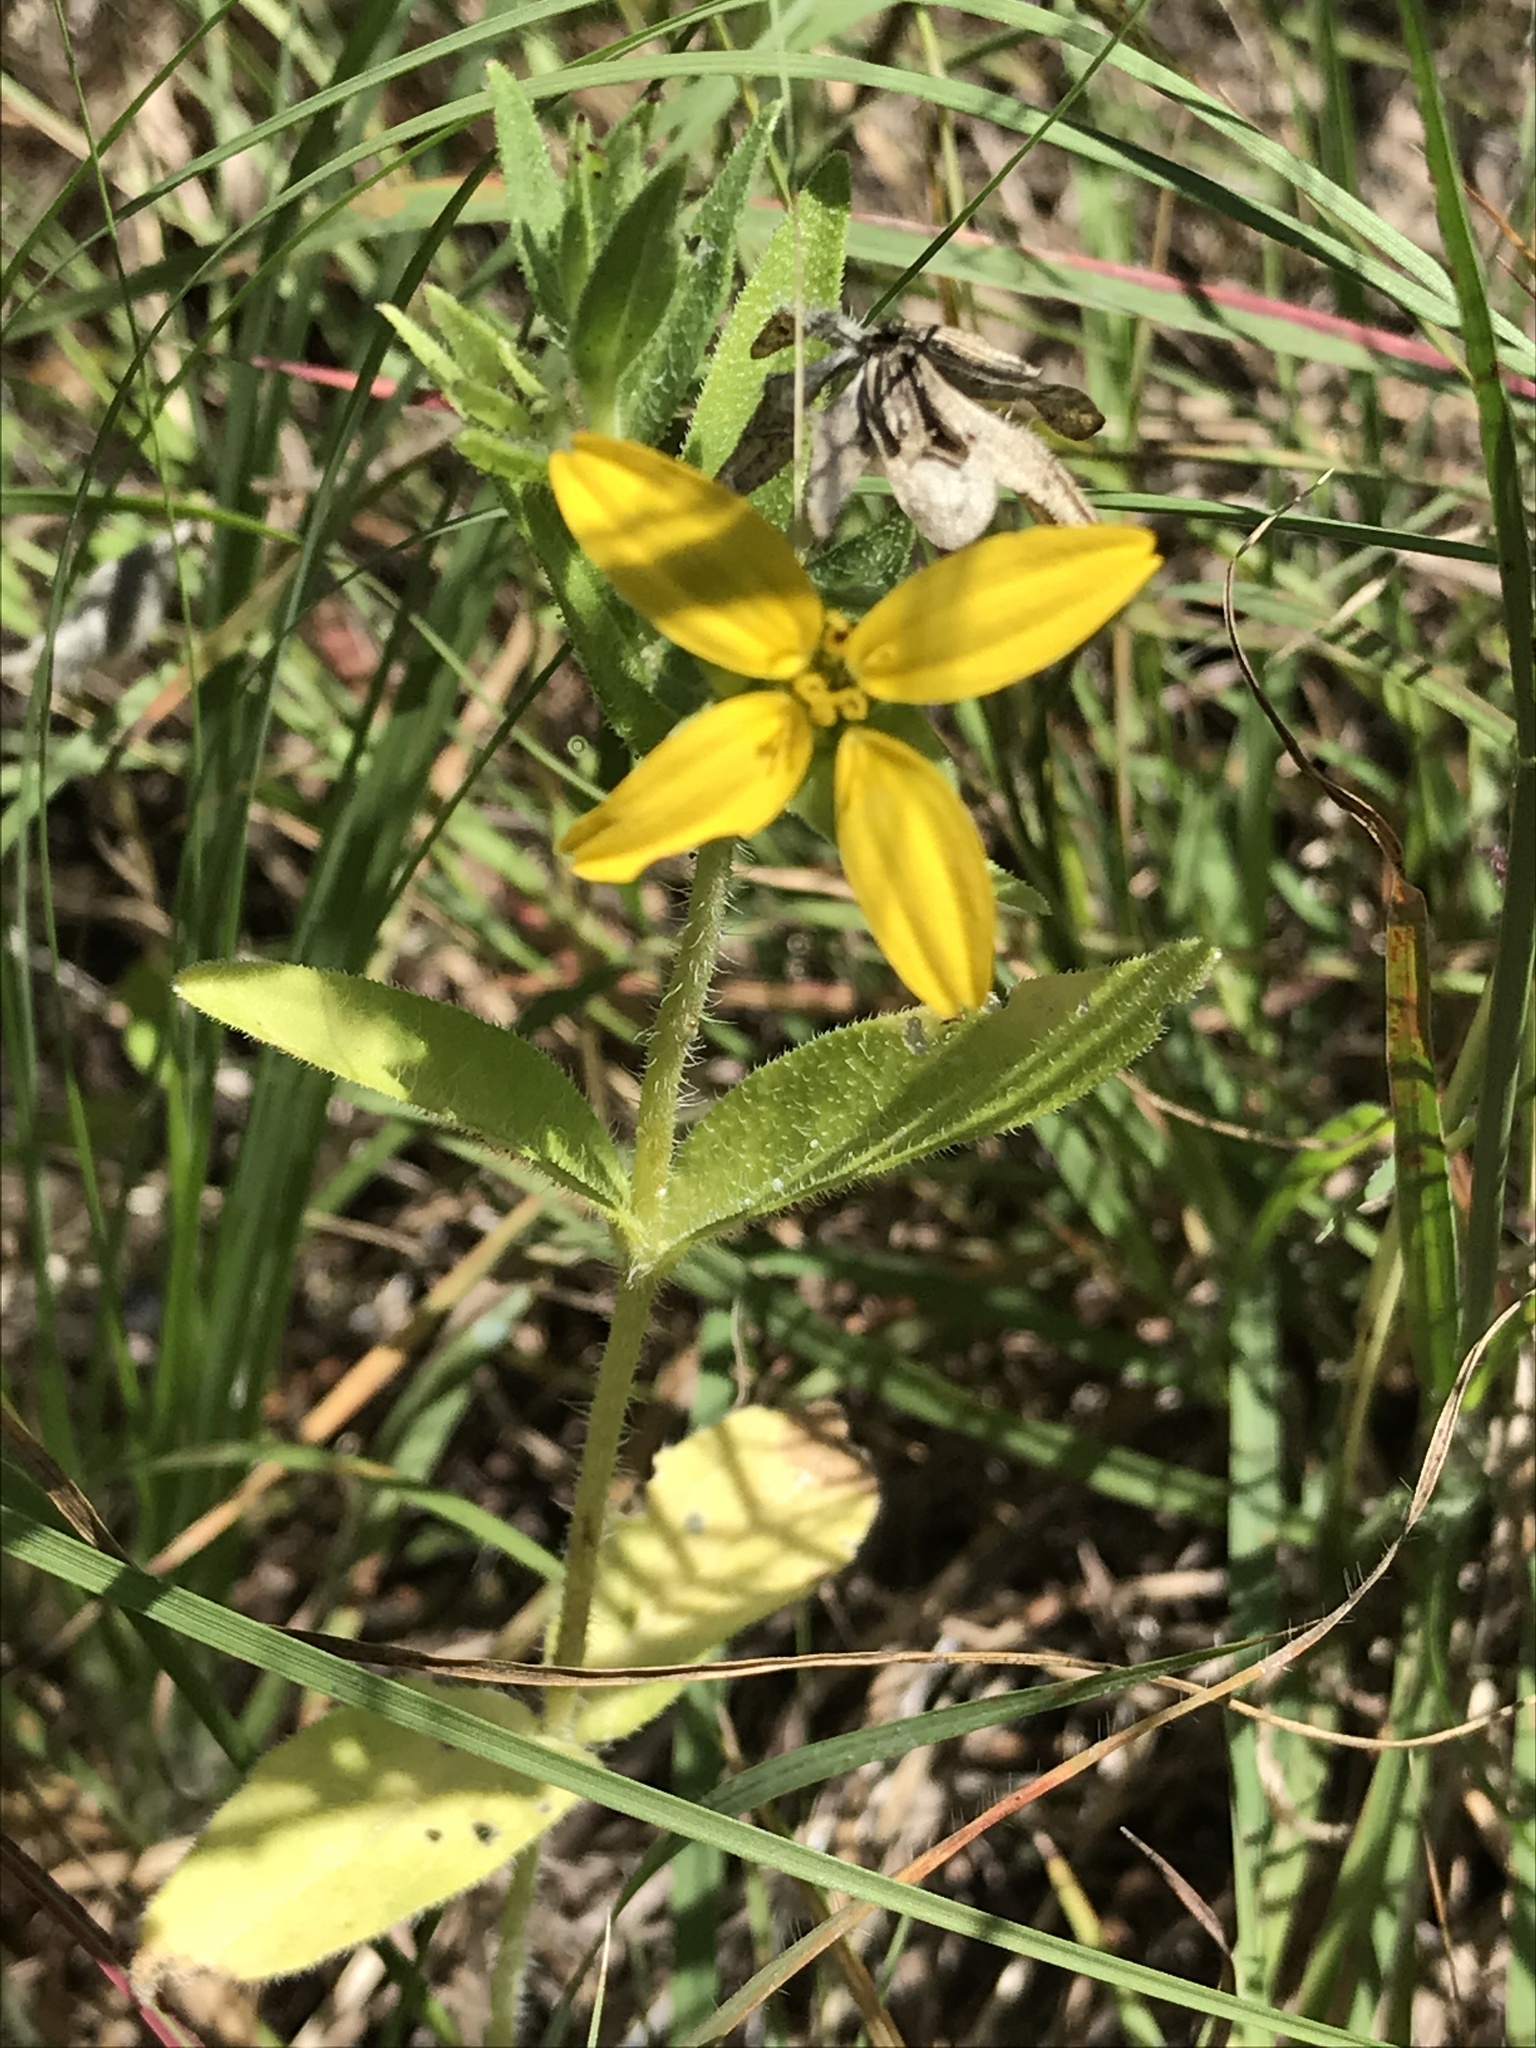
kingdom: Plantae
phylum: Tracheophyta
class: Magnoliopsida
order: Asterales
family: Asteraceae
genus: Lindheimera
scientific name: Lindheimera texana
